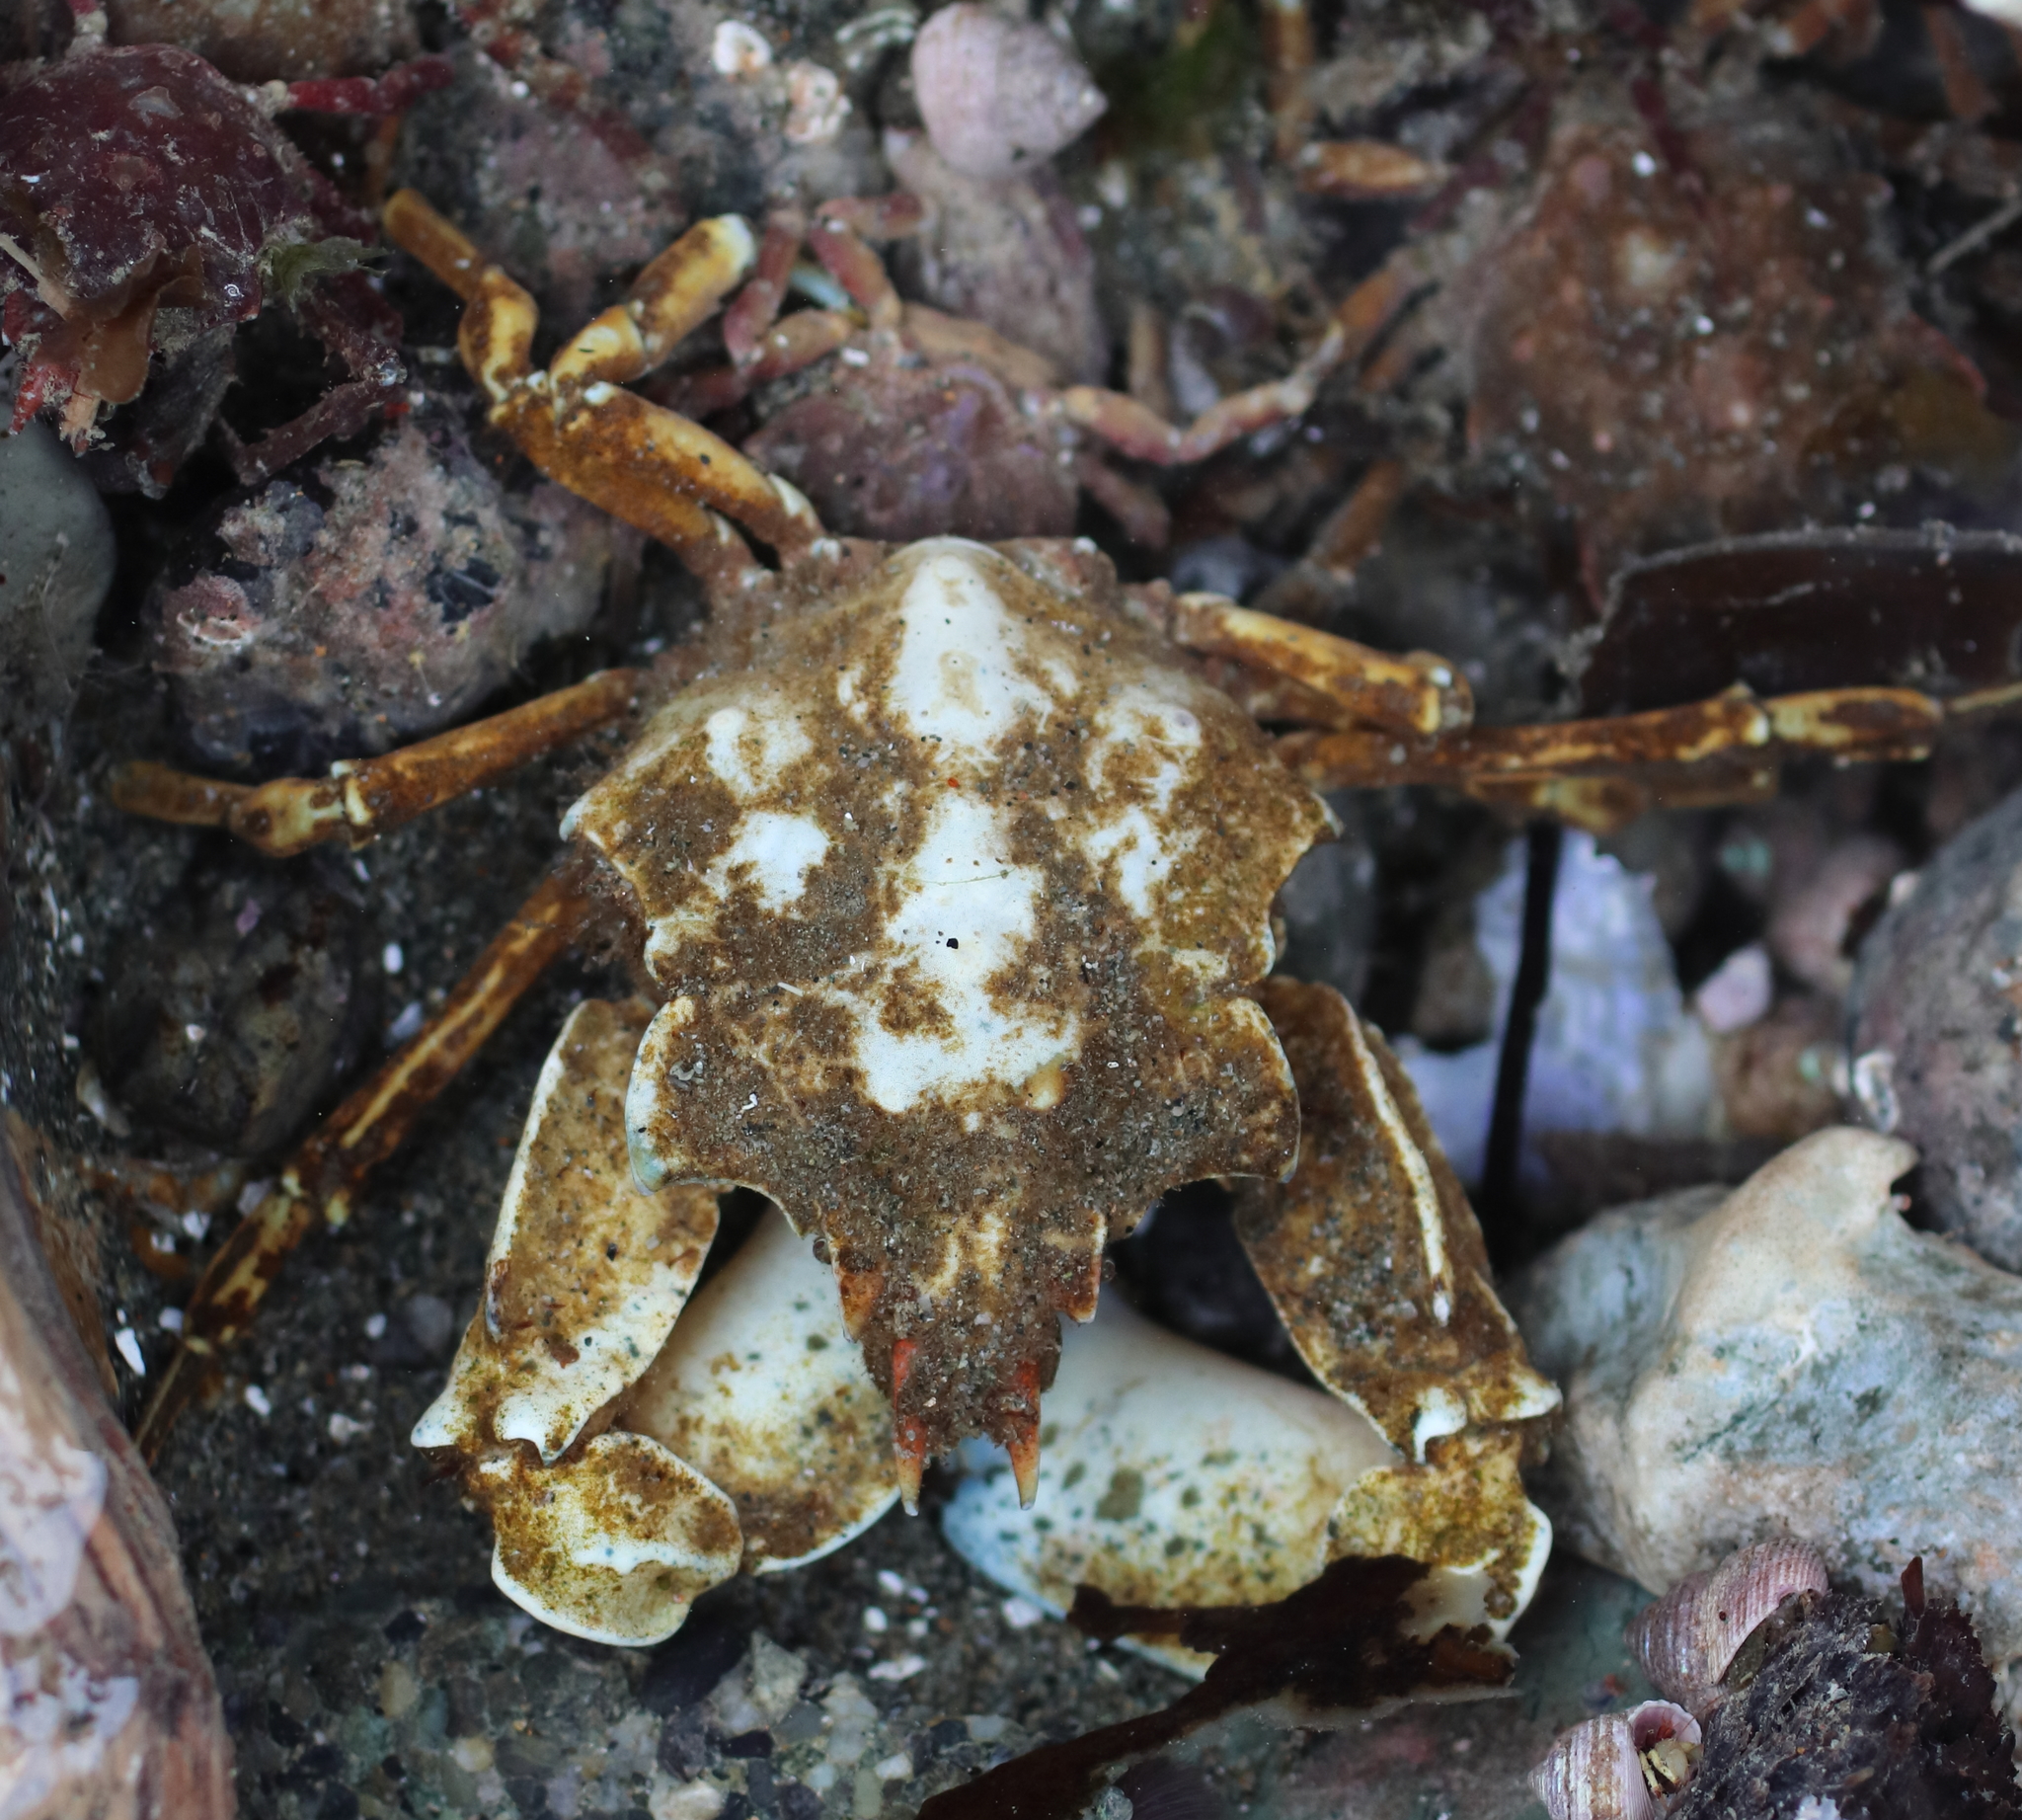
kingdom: Animalia
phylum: Arthropoda
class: Malacostraca
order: Decapoda
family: Epialtidae
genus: Pugettia
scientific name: Pugettia gracilis
